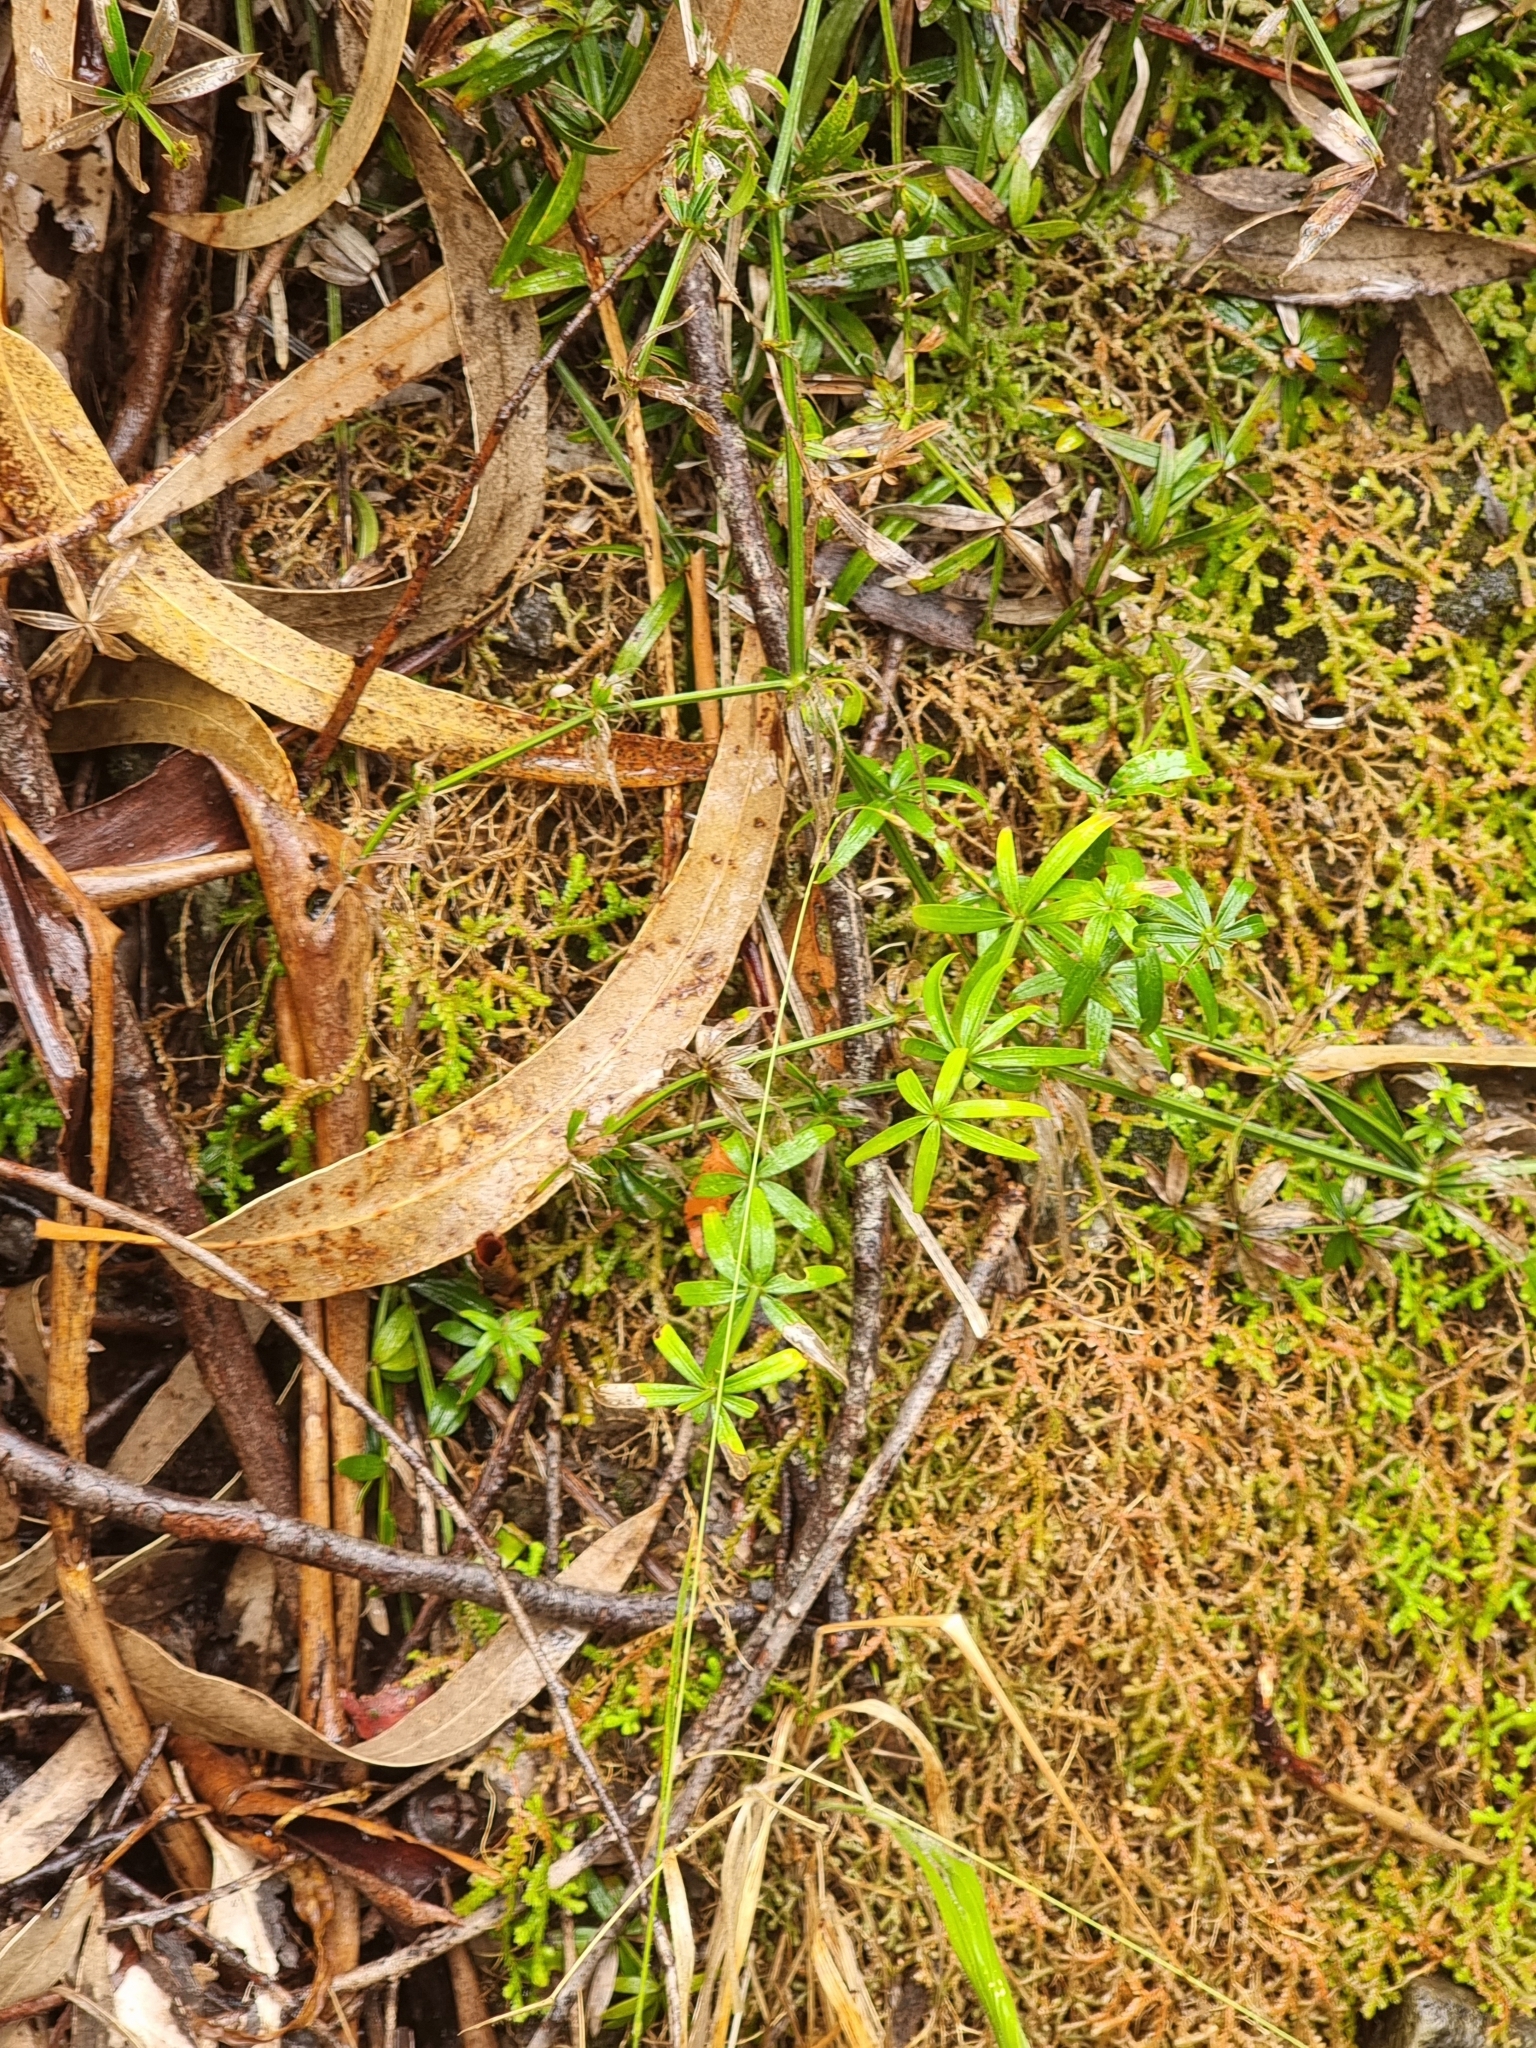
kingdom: Plantae
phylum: Tracheophyta
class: Magnoliopsida
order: Gentianales
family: Rubiaceae
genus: Rubia
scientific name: Rubia occidens
